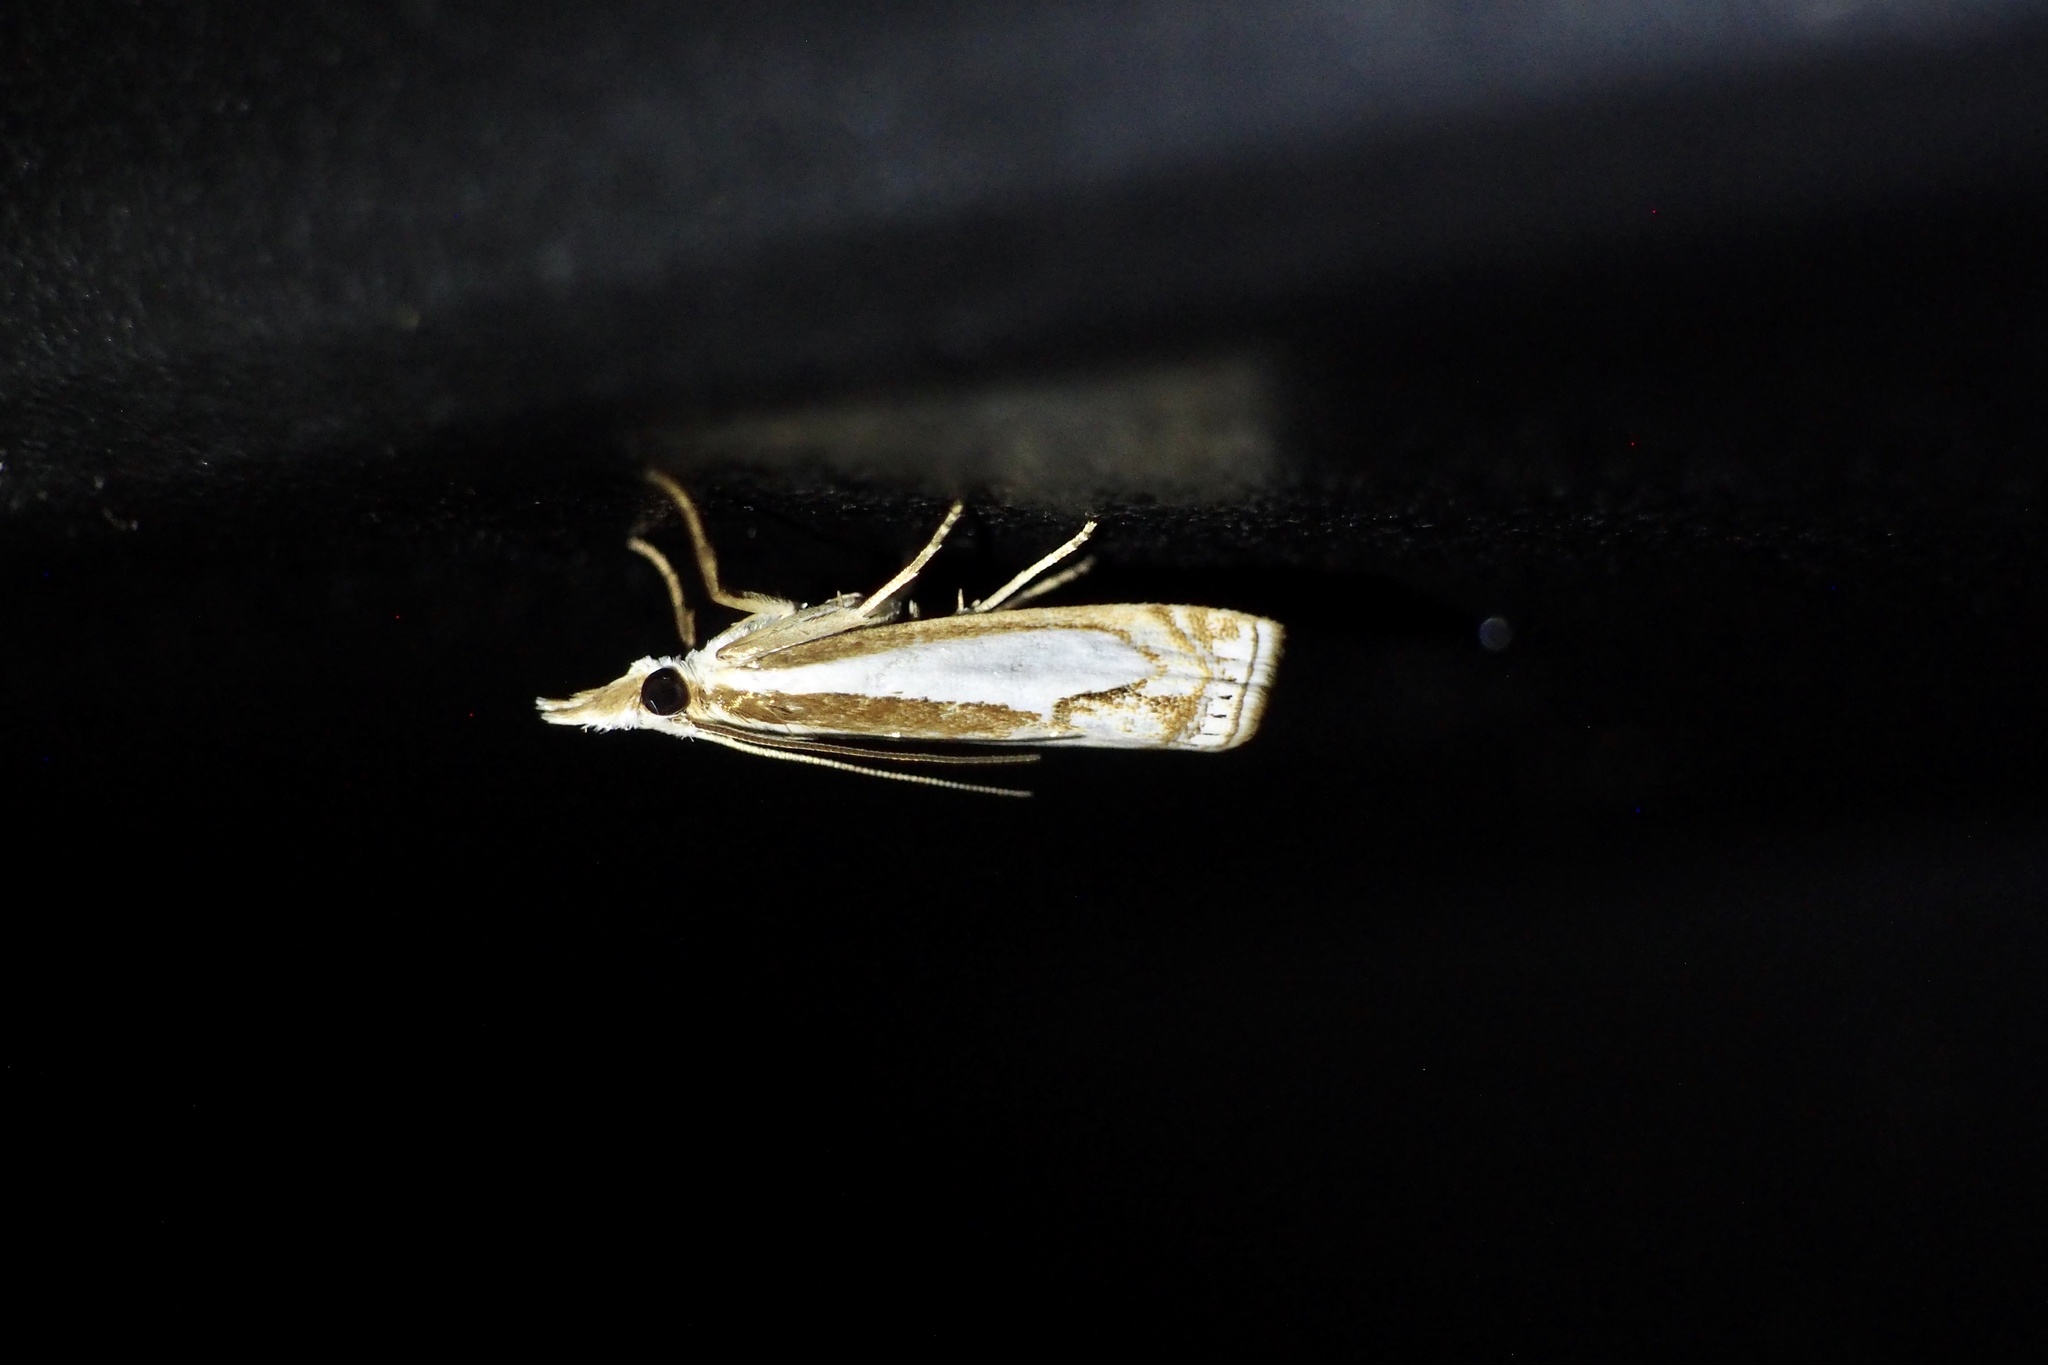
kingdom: Animalia
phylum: Arthropoda
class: Insecta
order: Lepidoptera
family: Crambidae
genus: Crambus
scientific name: Crambus pseudargyrophorus
